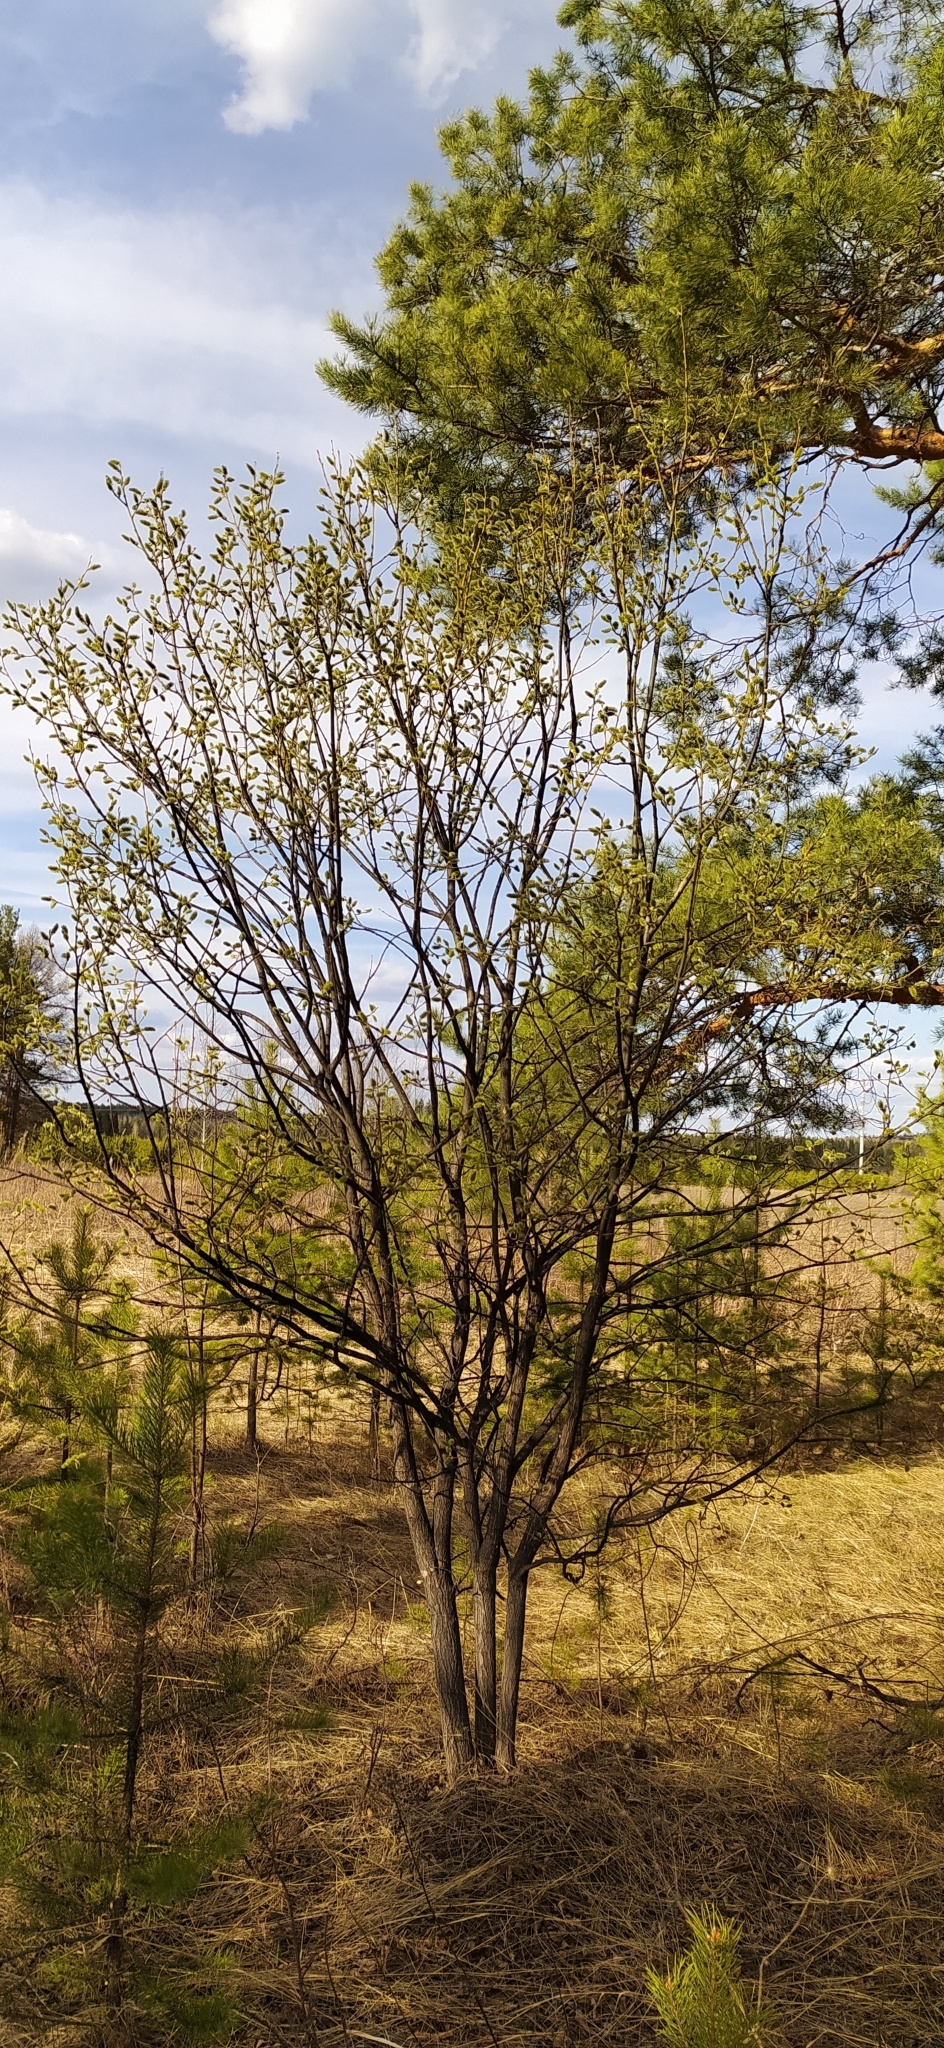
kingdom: Plantae
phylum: Tracheophyta
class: Magnoliopsida
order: Malpighiales
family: Salicaceae
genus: Salix
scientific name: Salix caprea
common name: Goat willow
